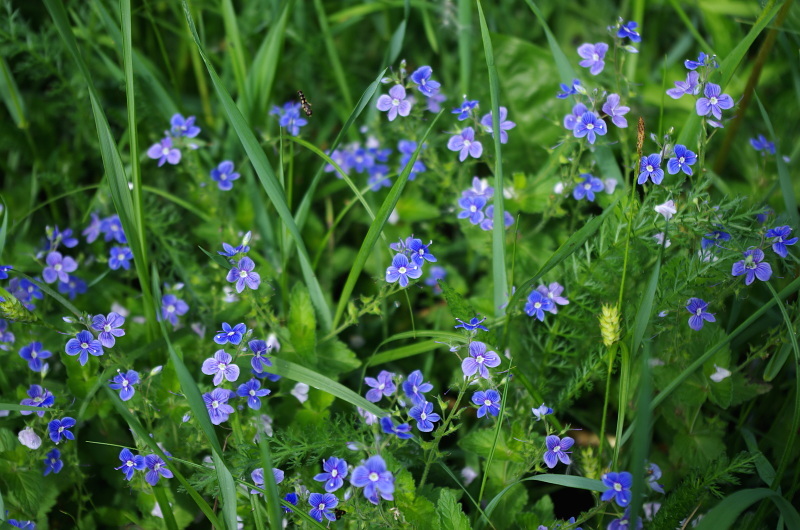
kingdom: Plantae
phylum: Tracheophyta
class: Magnoliopsida
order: Lamiales
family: Plantaginaceae
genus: Veronica
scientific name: Veronica chamaedrys
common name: Germander speedwell
